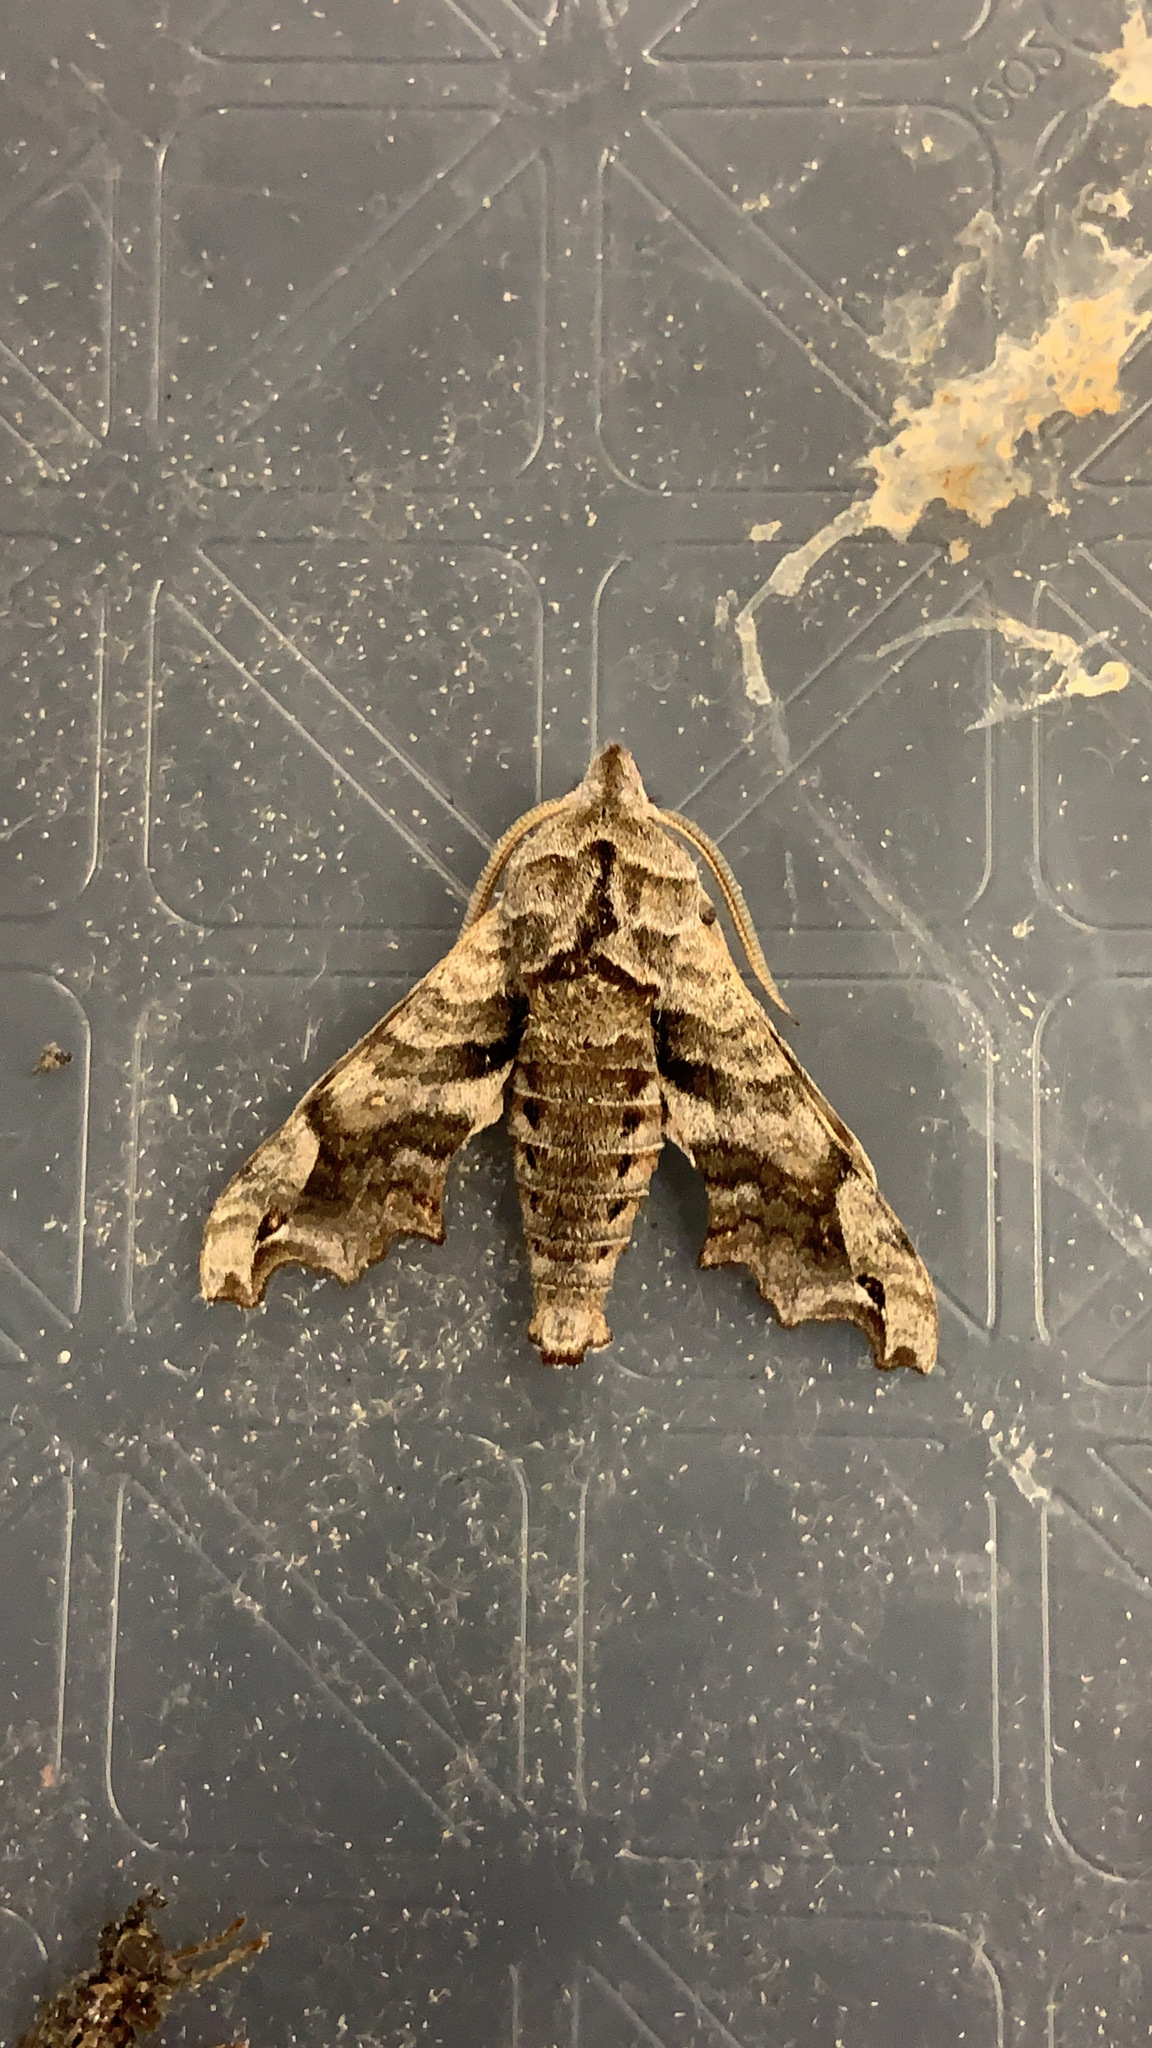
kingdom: Animalia
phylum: Arthropoda
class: Insecta
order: Lepidoptera
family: Sphingidae
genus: Deidamia
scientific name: Deidamia inscriptum
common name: Lettered sphinx
